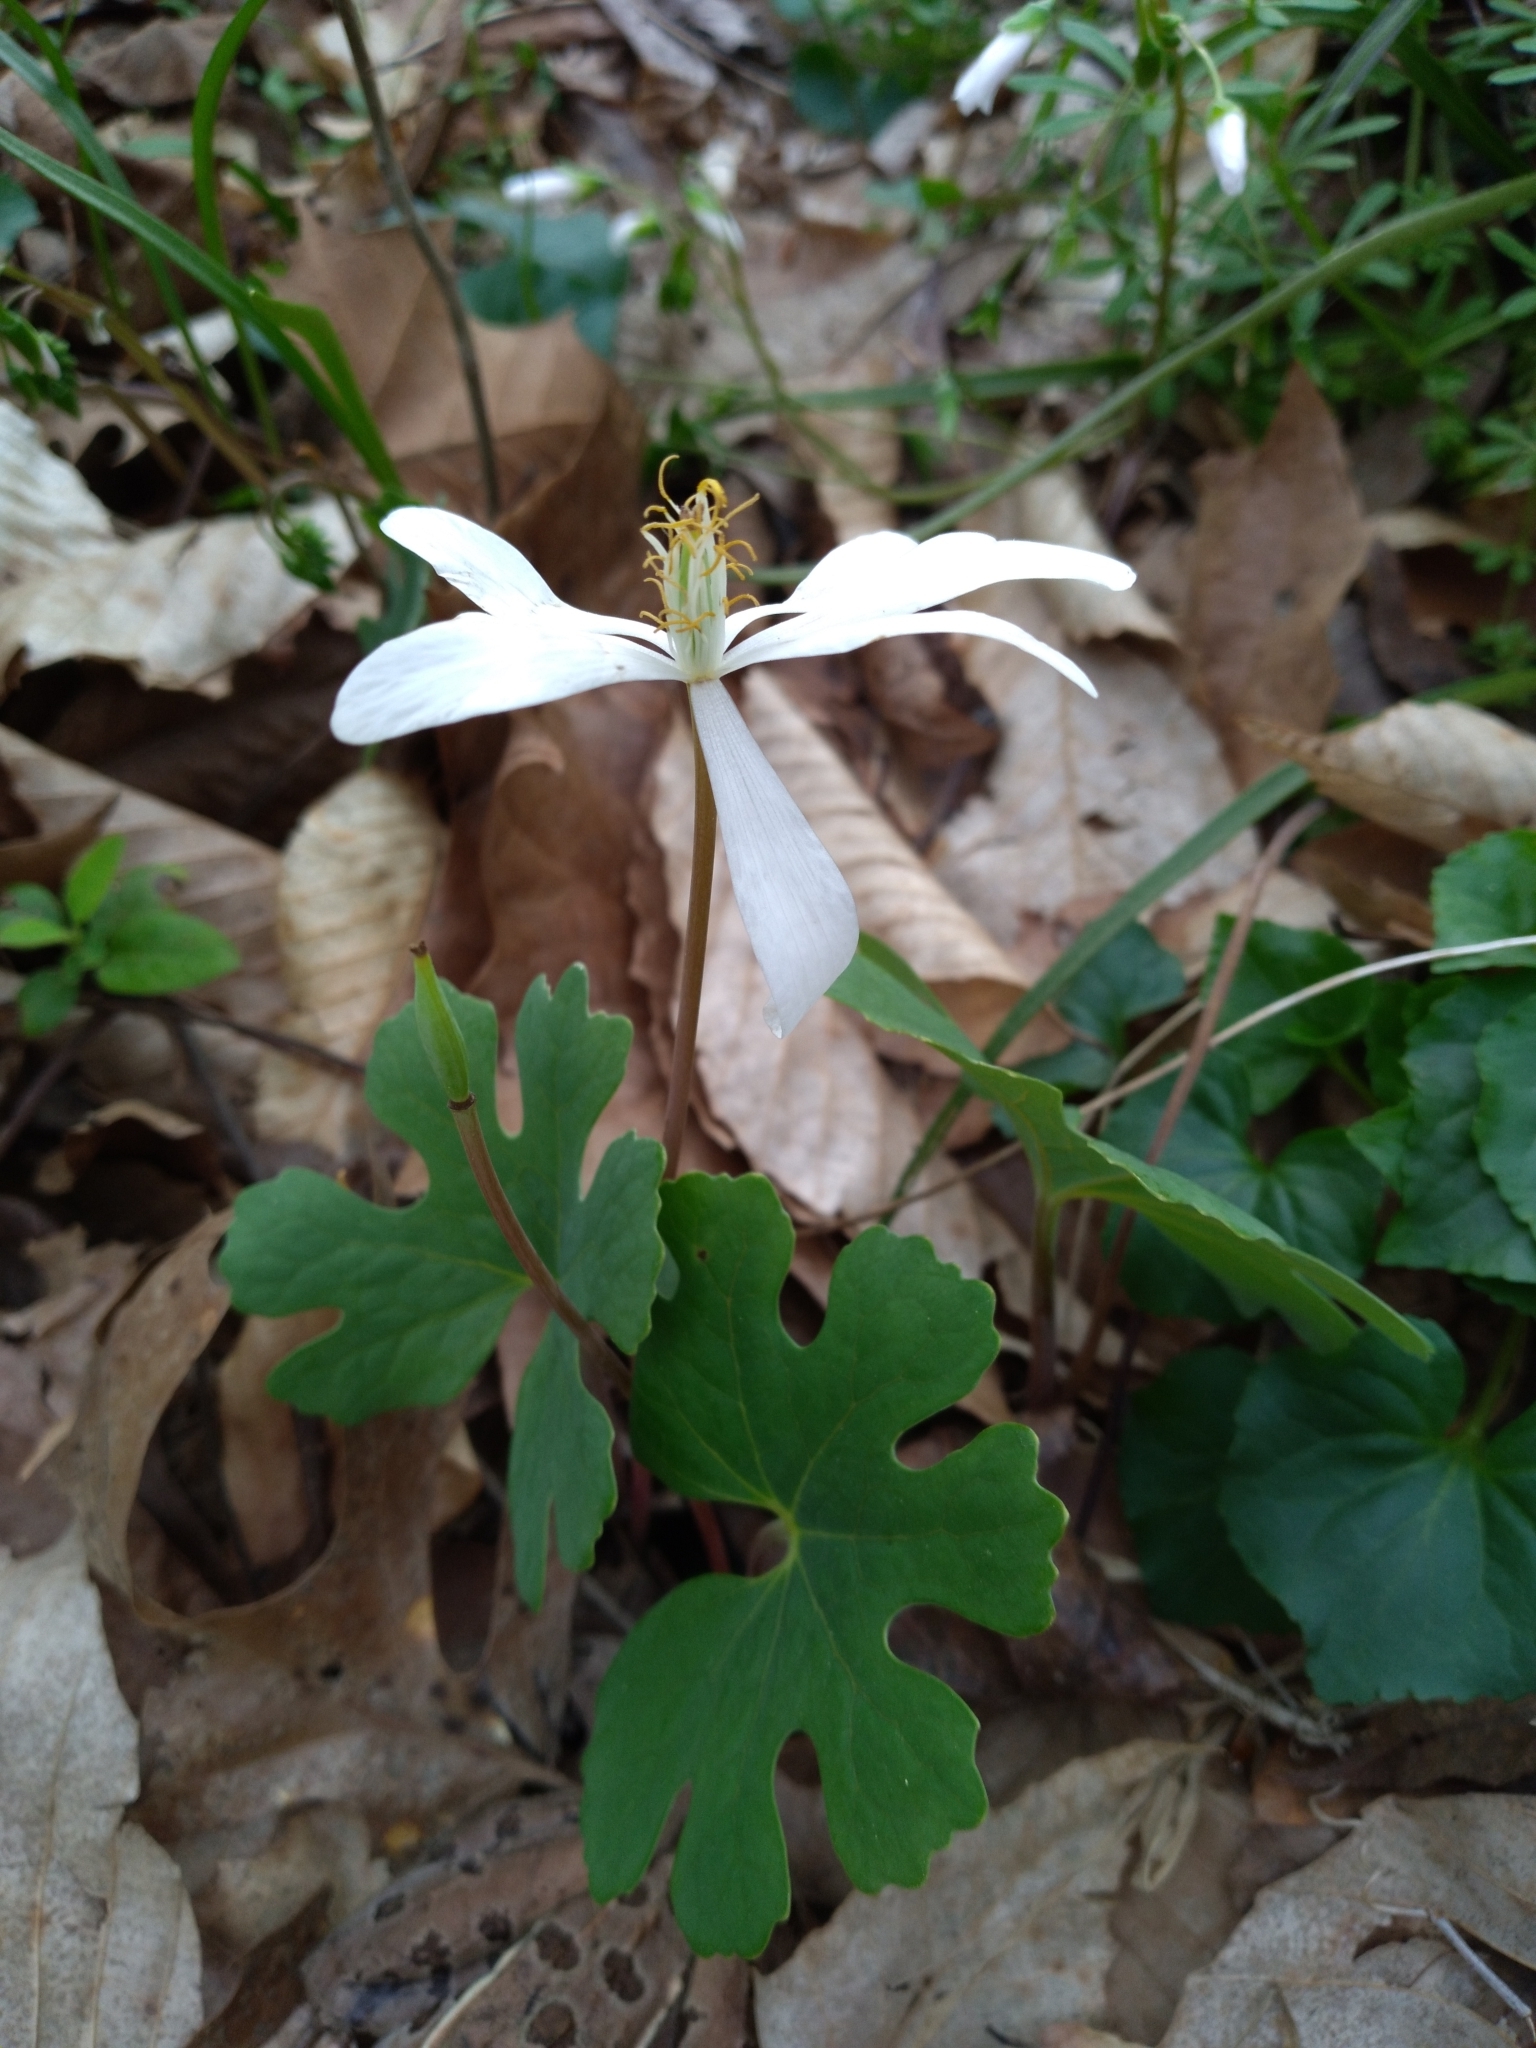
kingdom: Plantae
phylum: Tracheophyta
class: Magnoliopsida
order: Ranunculales
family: Papaveraceae
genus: Sanguinaria
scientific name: Sanguinaria canadensis
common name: Bloodroot
